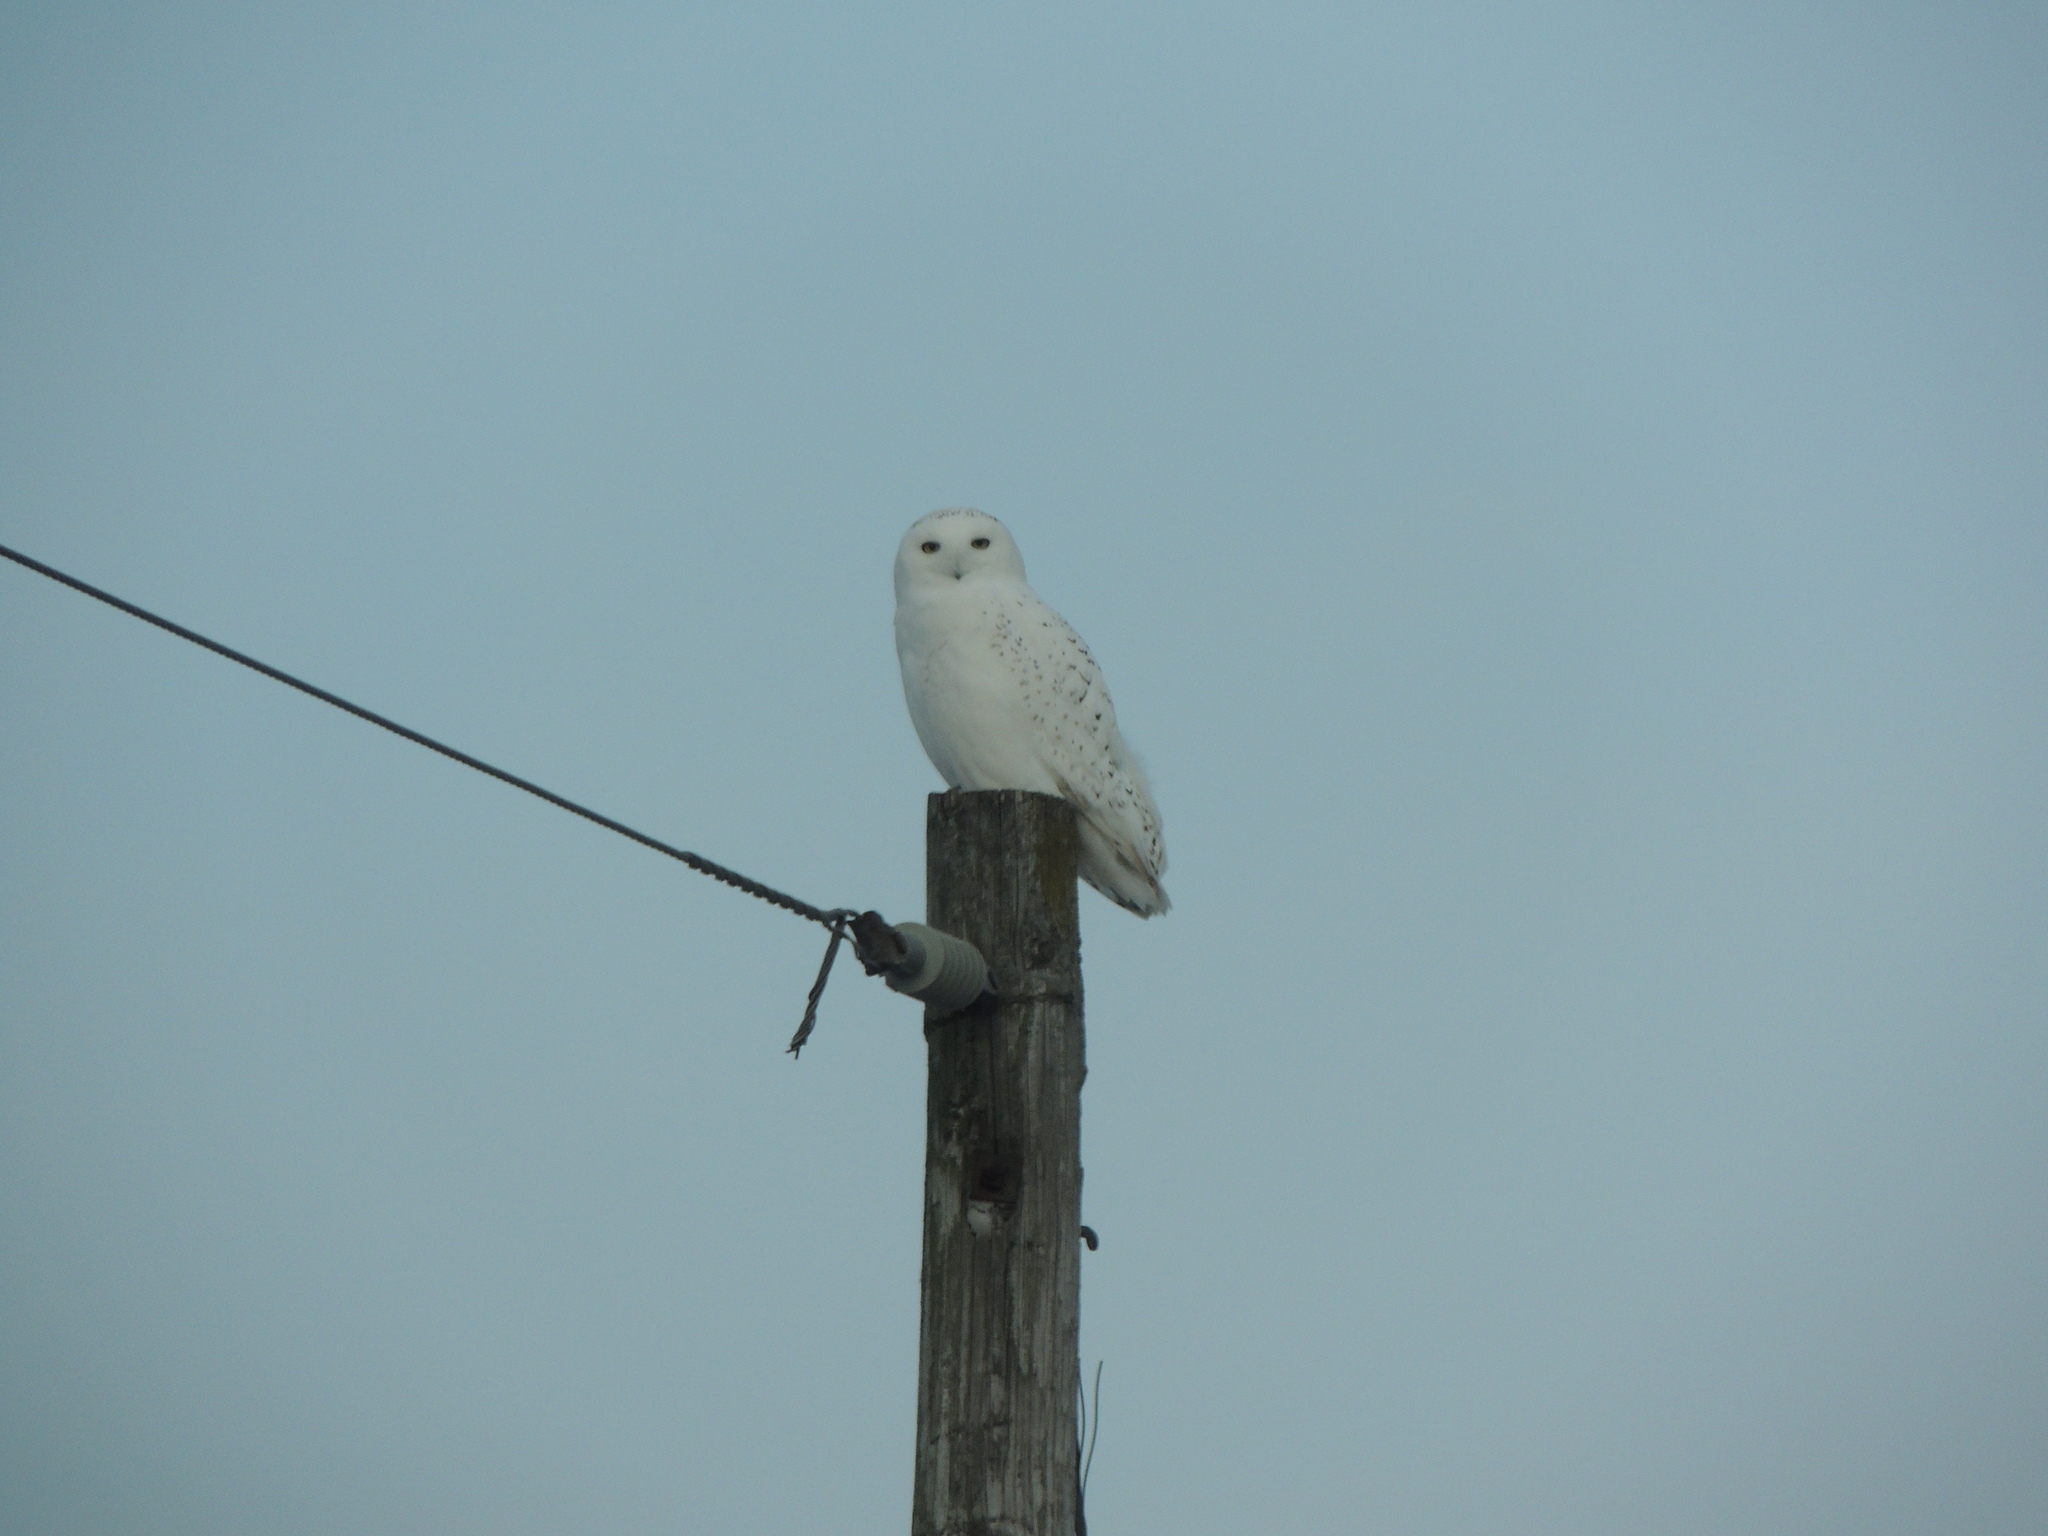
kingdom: Animalia
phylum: Chordata
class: Aves
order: Strigiformes
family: Strigidae
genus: Bubo
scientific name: Bubo scandiacus
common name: Snowy owl
